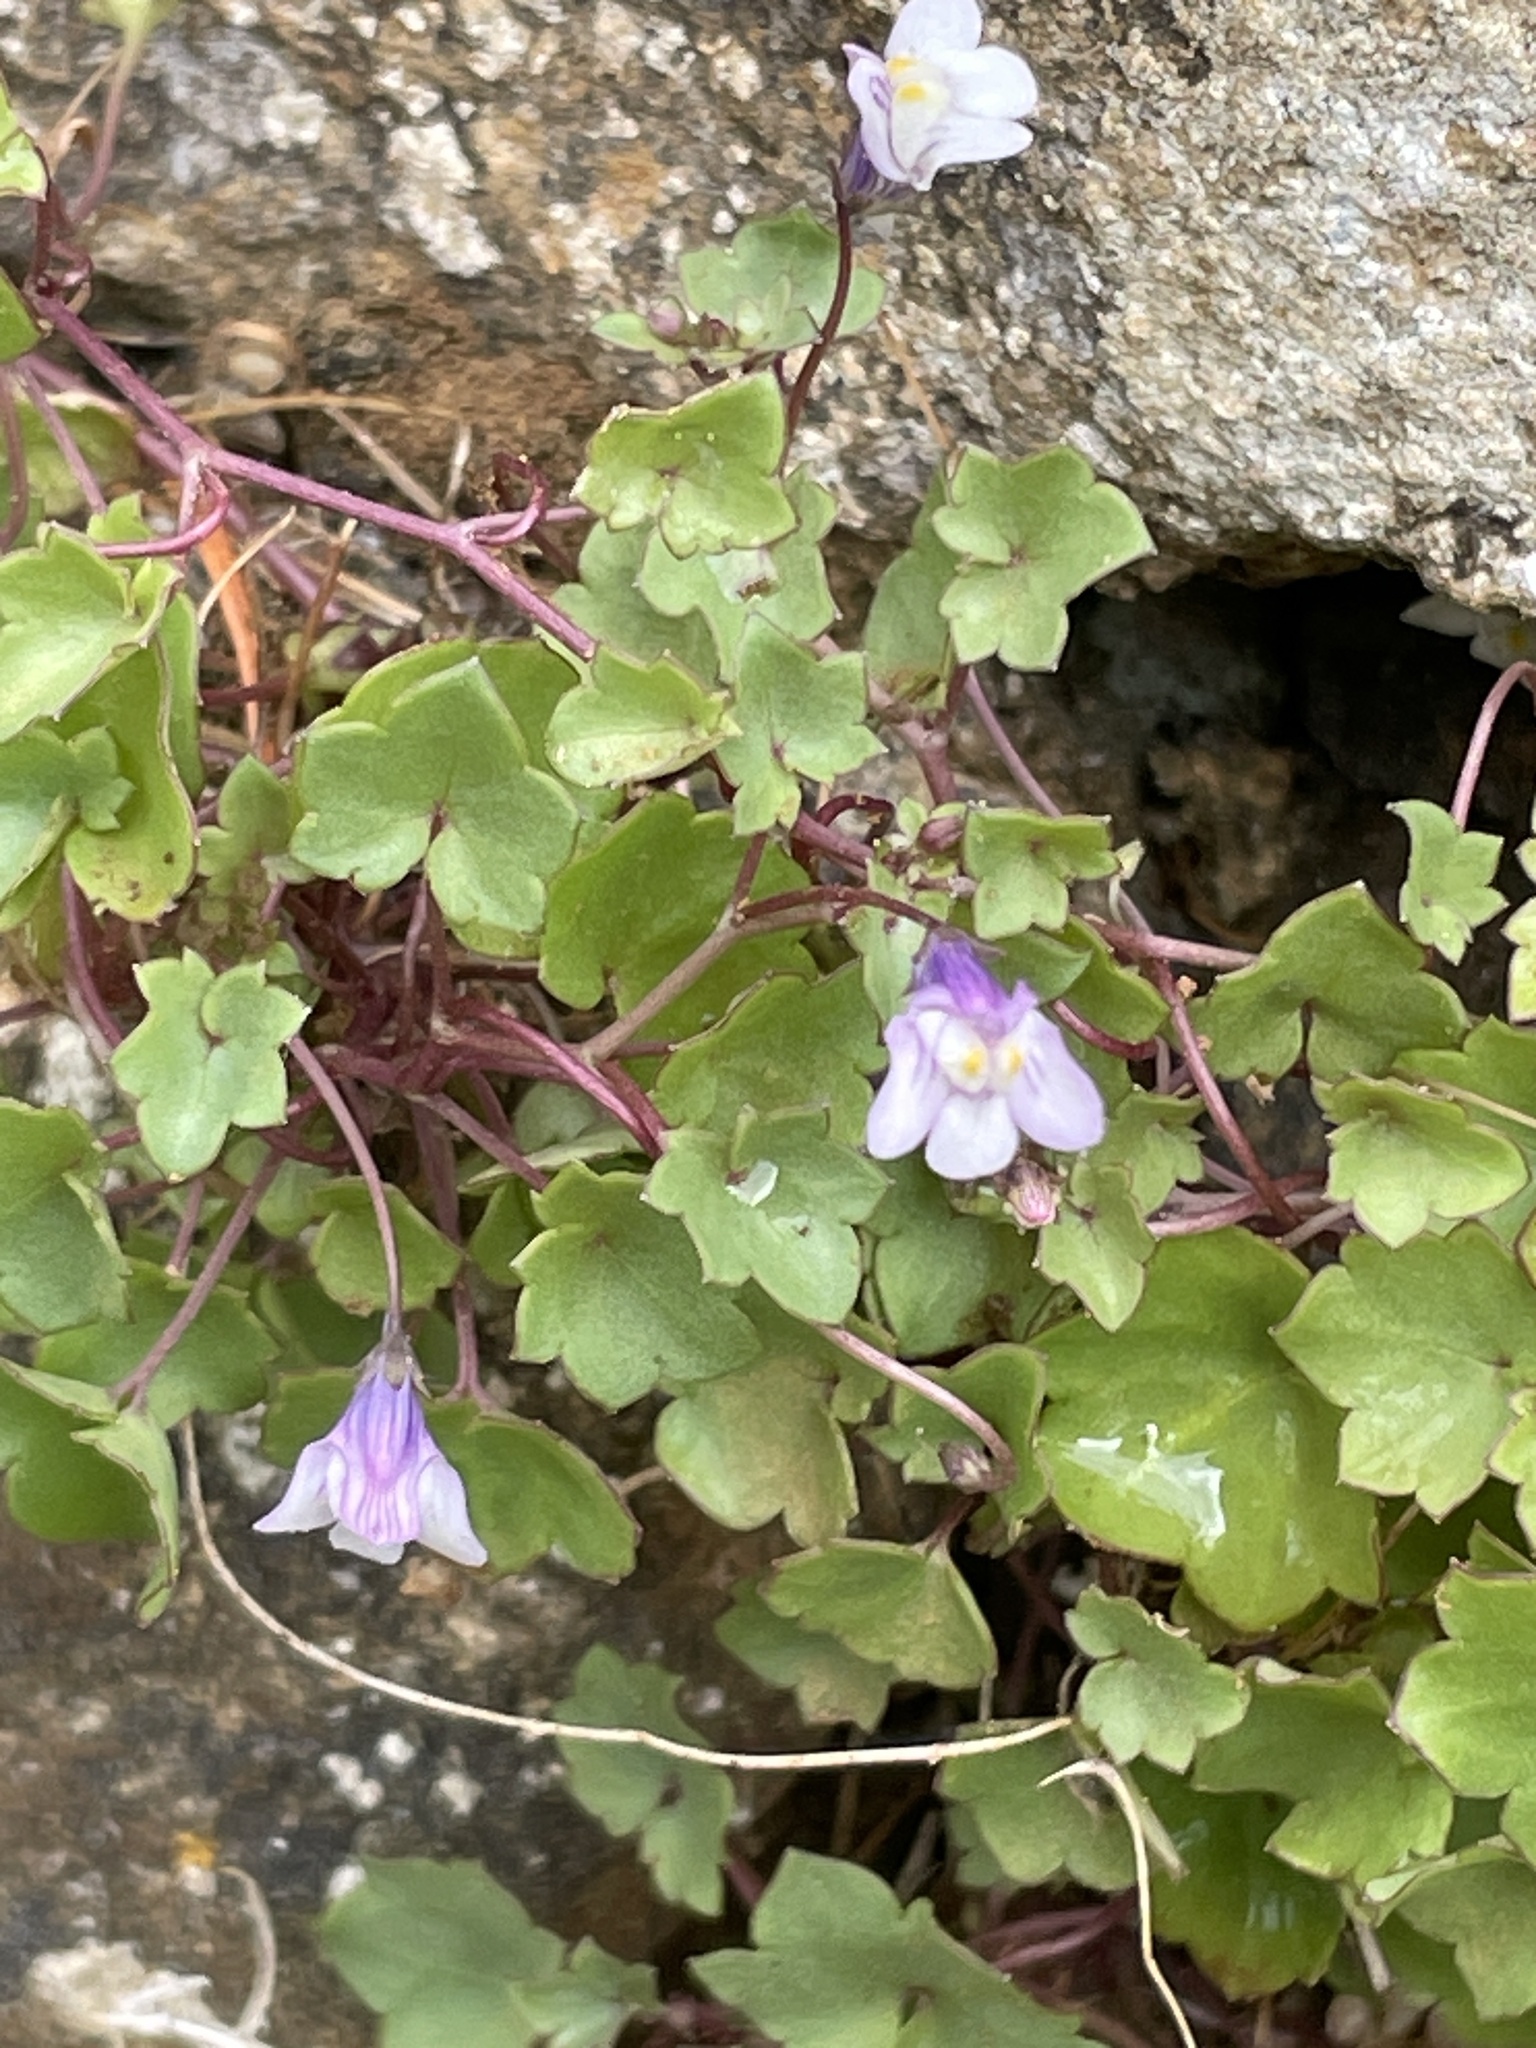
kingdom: Plantae
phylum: Tracheophyta
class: Magnoliopsida
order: Lamiales
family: Plantaginaceae
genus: Cymbalaria
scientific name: Cymbalaria muralis
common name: Ivy-leaved toadflax
